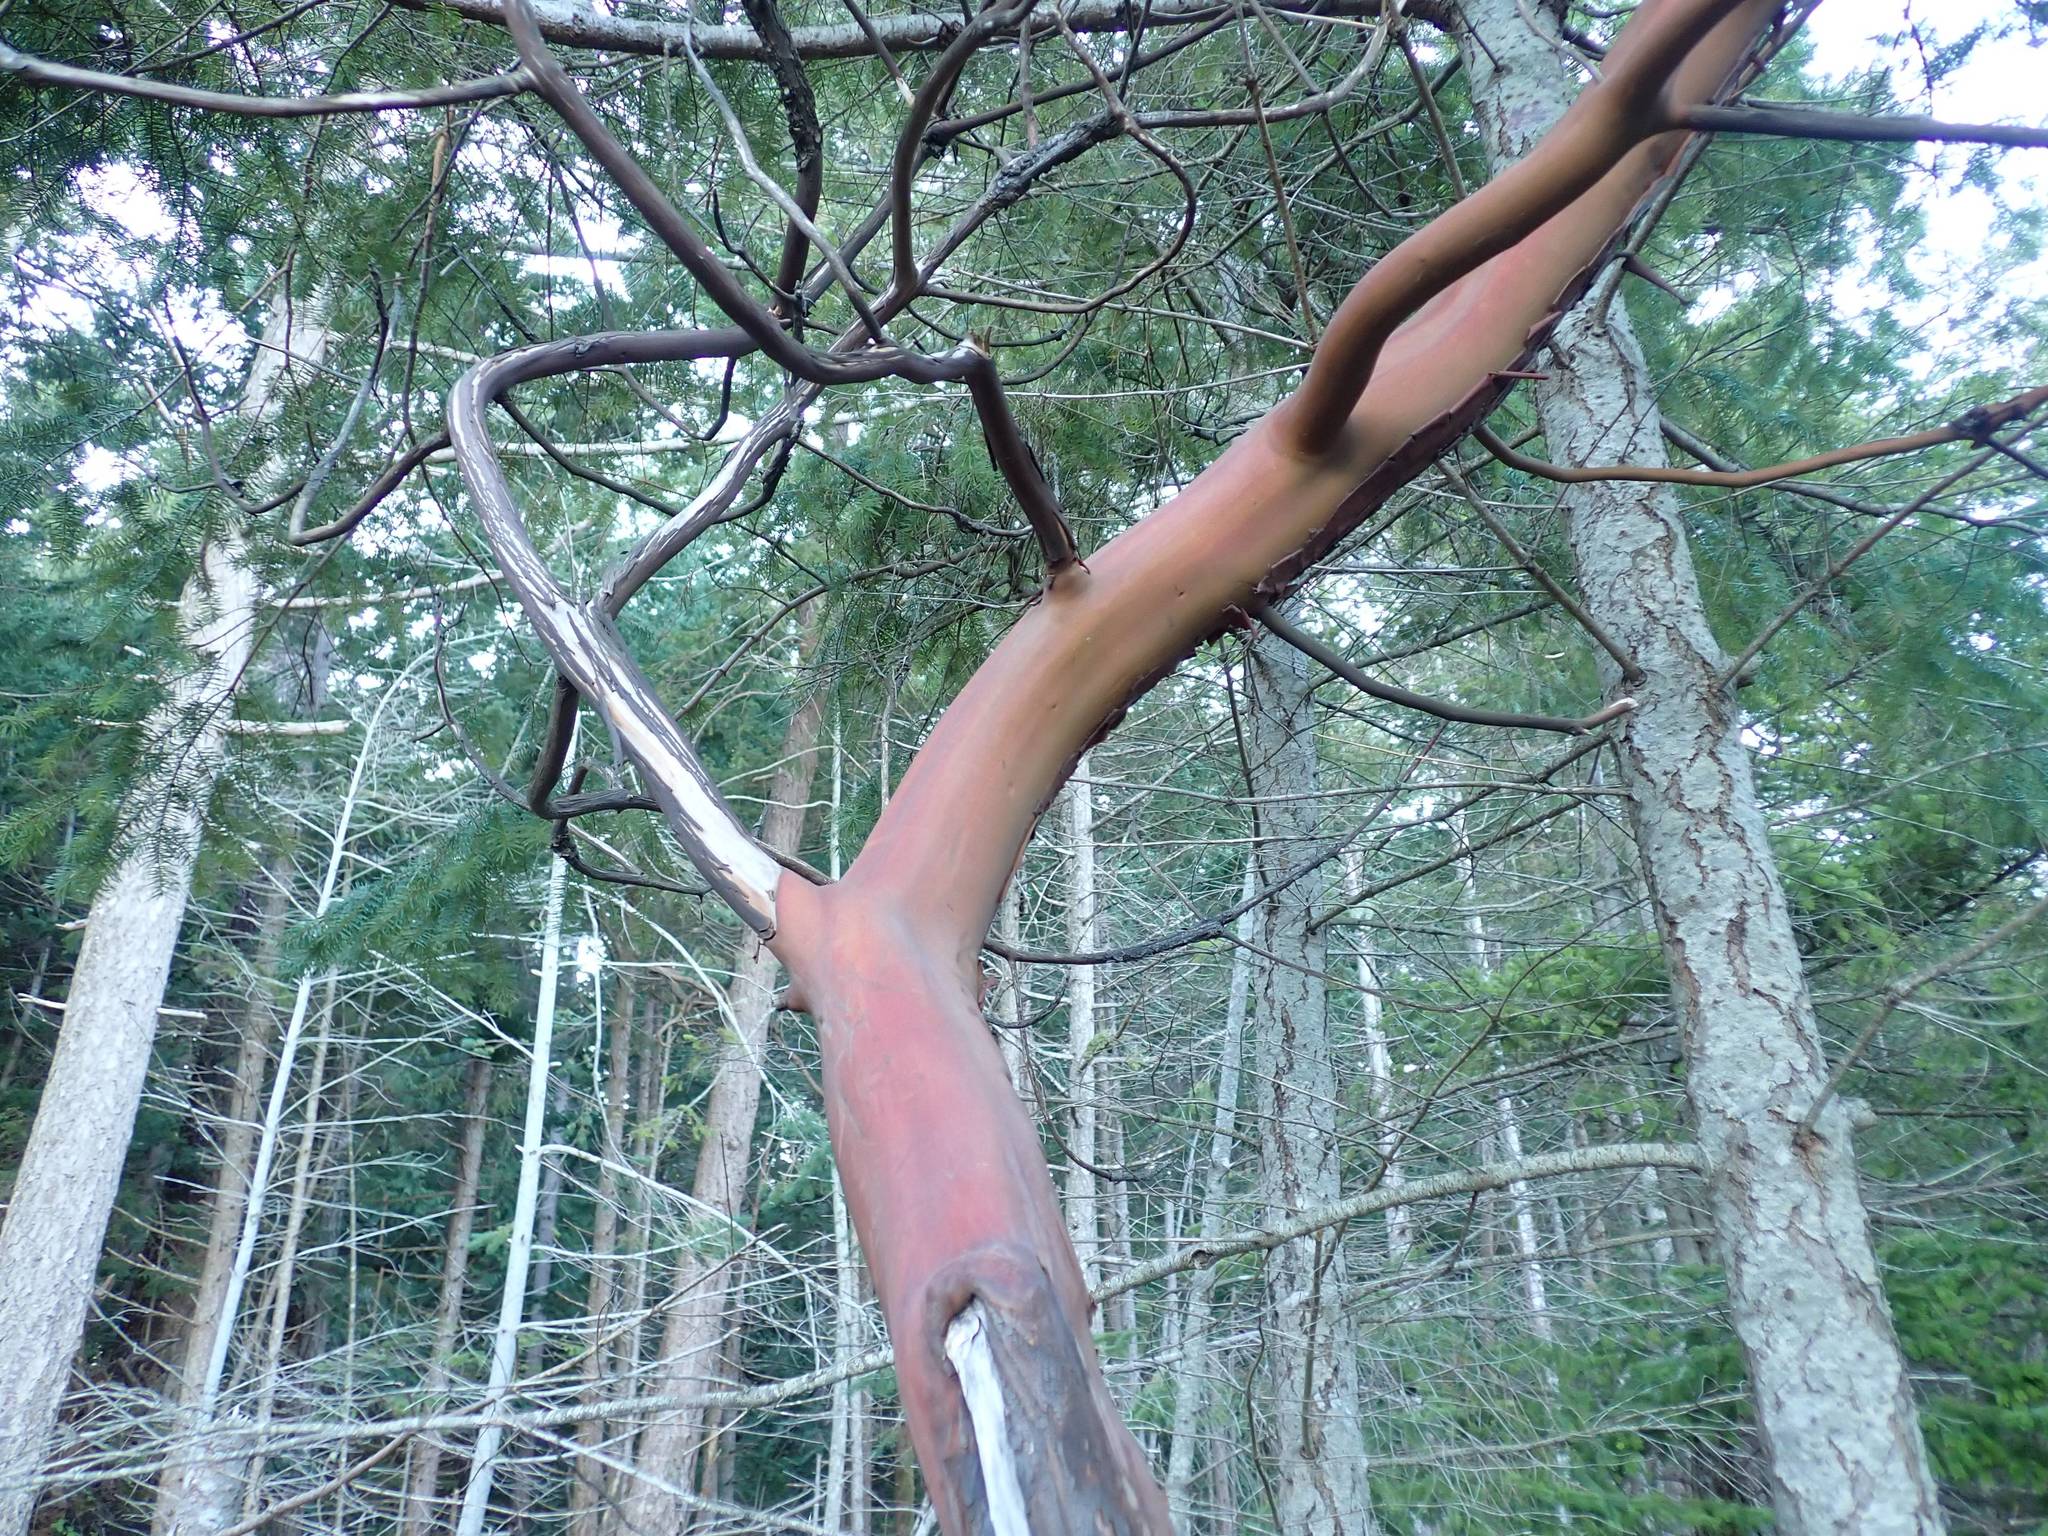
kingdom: Plantae
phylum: Tracheophyta
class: Magnoliopsida
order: Ericales
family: Ericaceae
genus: Arbutus
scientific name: Arbutus menziesii
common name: Pacific madrone
